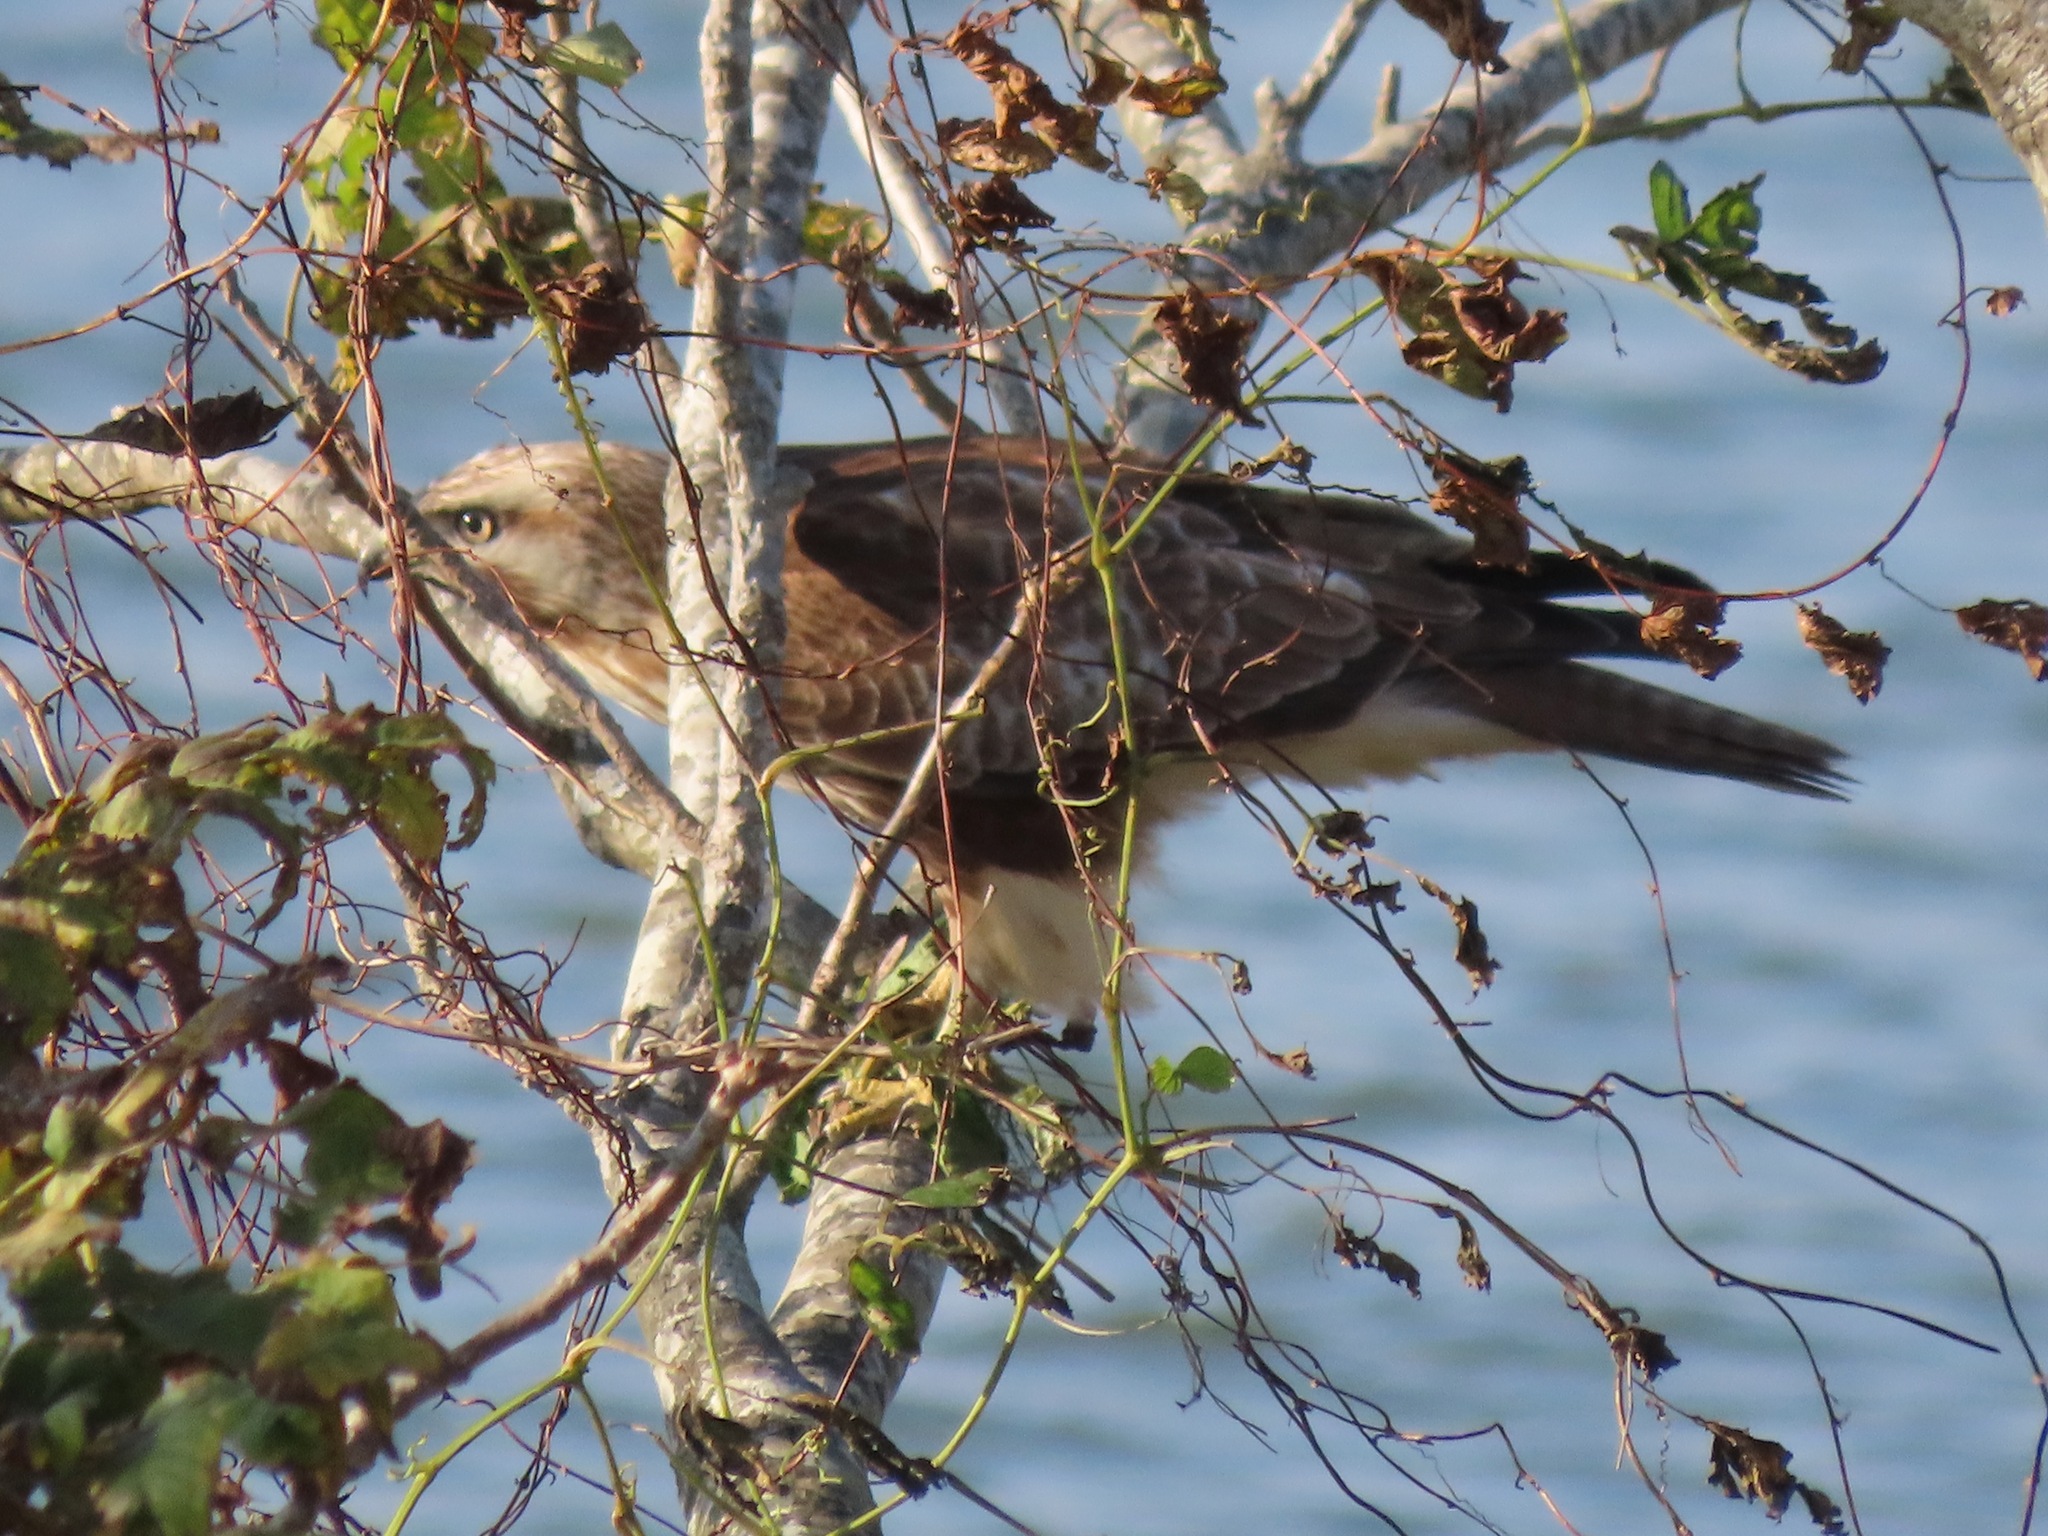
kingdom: Animalia
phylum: Chordata
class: Aves
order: Accipitriformes
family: Accipitridae
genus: Buteo
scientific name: Buteo japonicus
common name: Eastern buzzard
